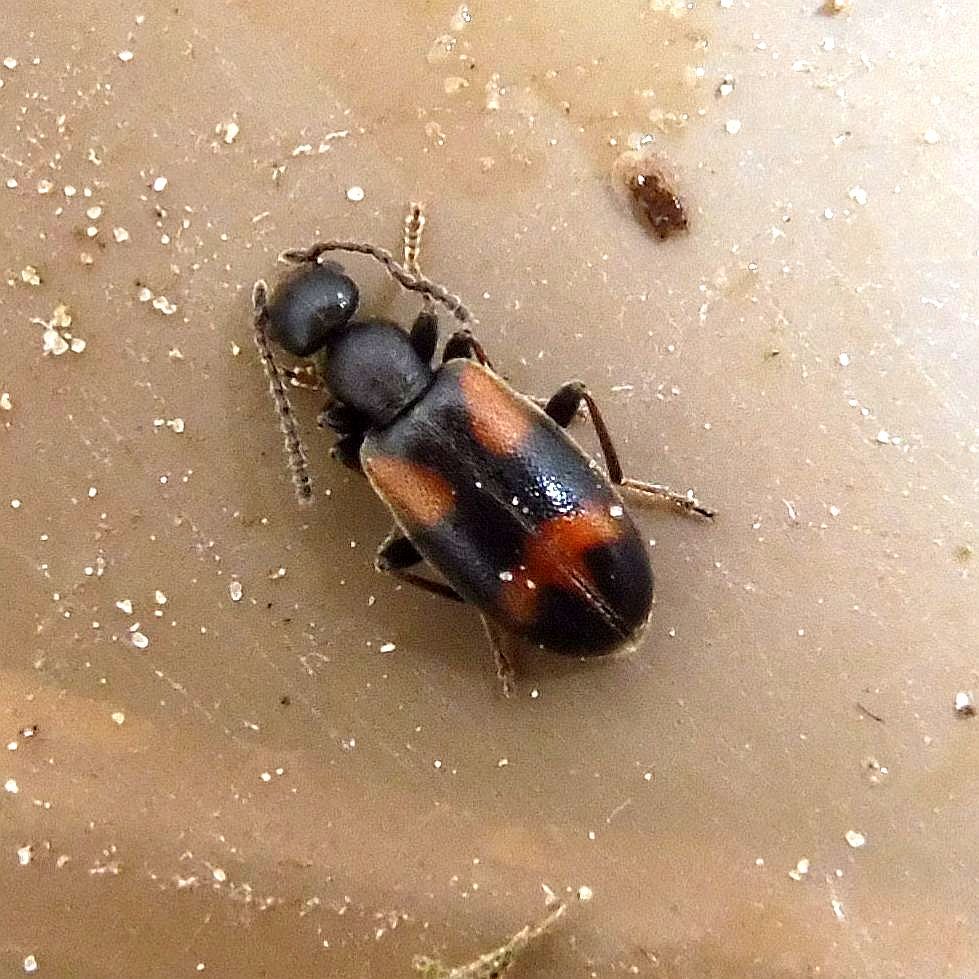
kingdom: Animalia
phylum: Arthropoda
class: Insecta
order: Coleoptera
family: Anthicidae
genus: Anthicus
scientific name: Anthicus antherinus
